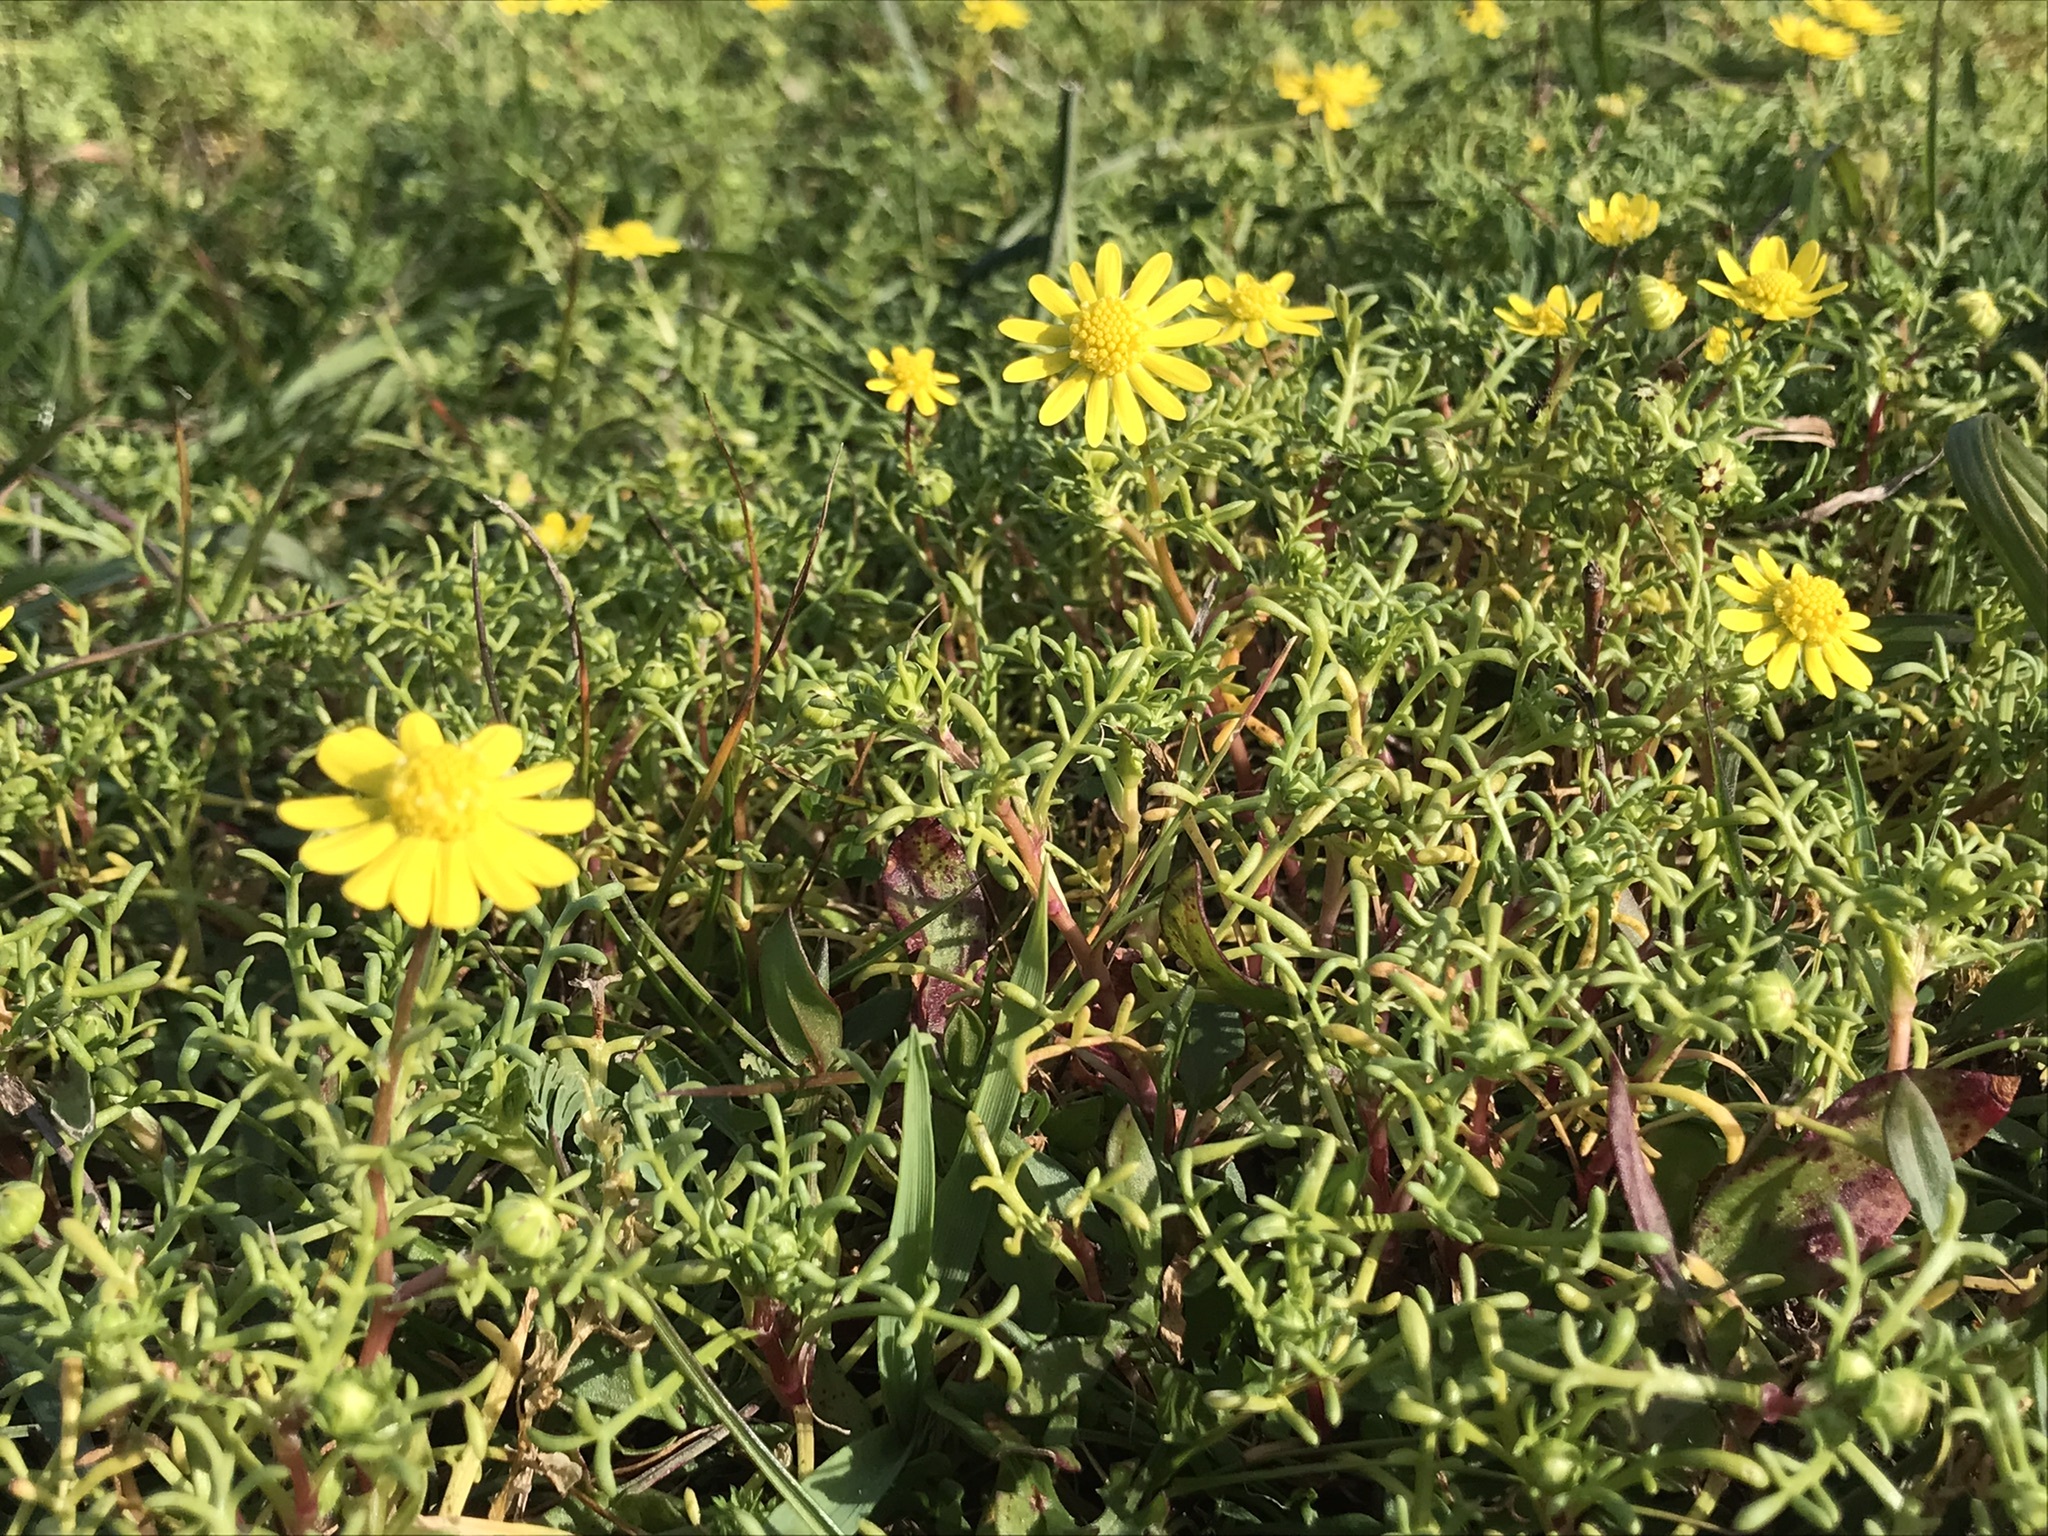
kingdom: Plantae
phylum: Tracheophyta
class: Magnoliopsida
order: Asterales
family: Asteraceae
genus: Blennosperma
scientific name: Blennosperma nanum
